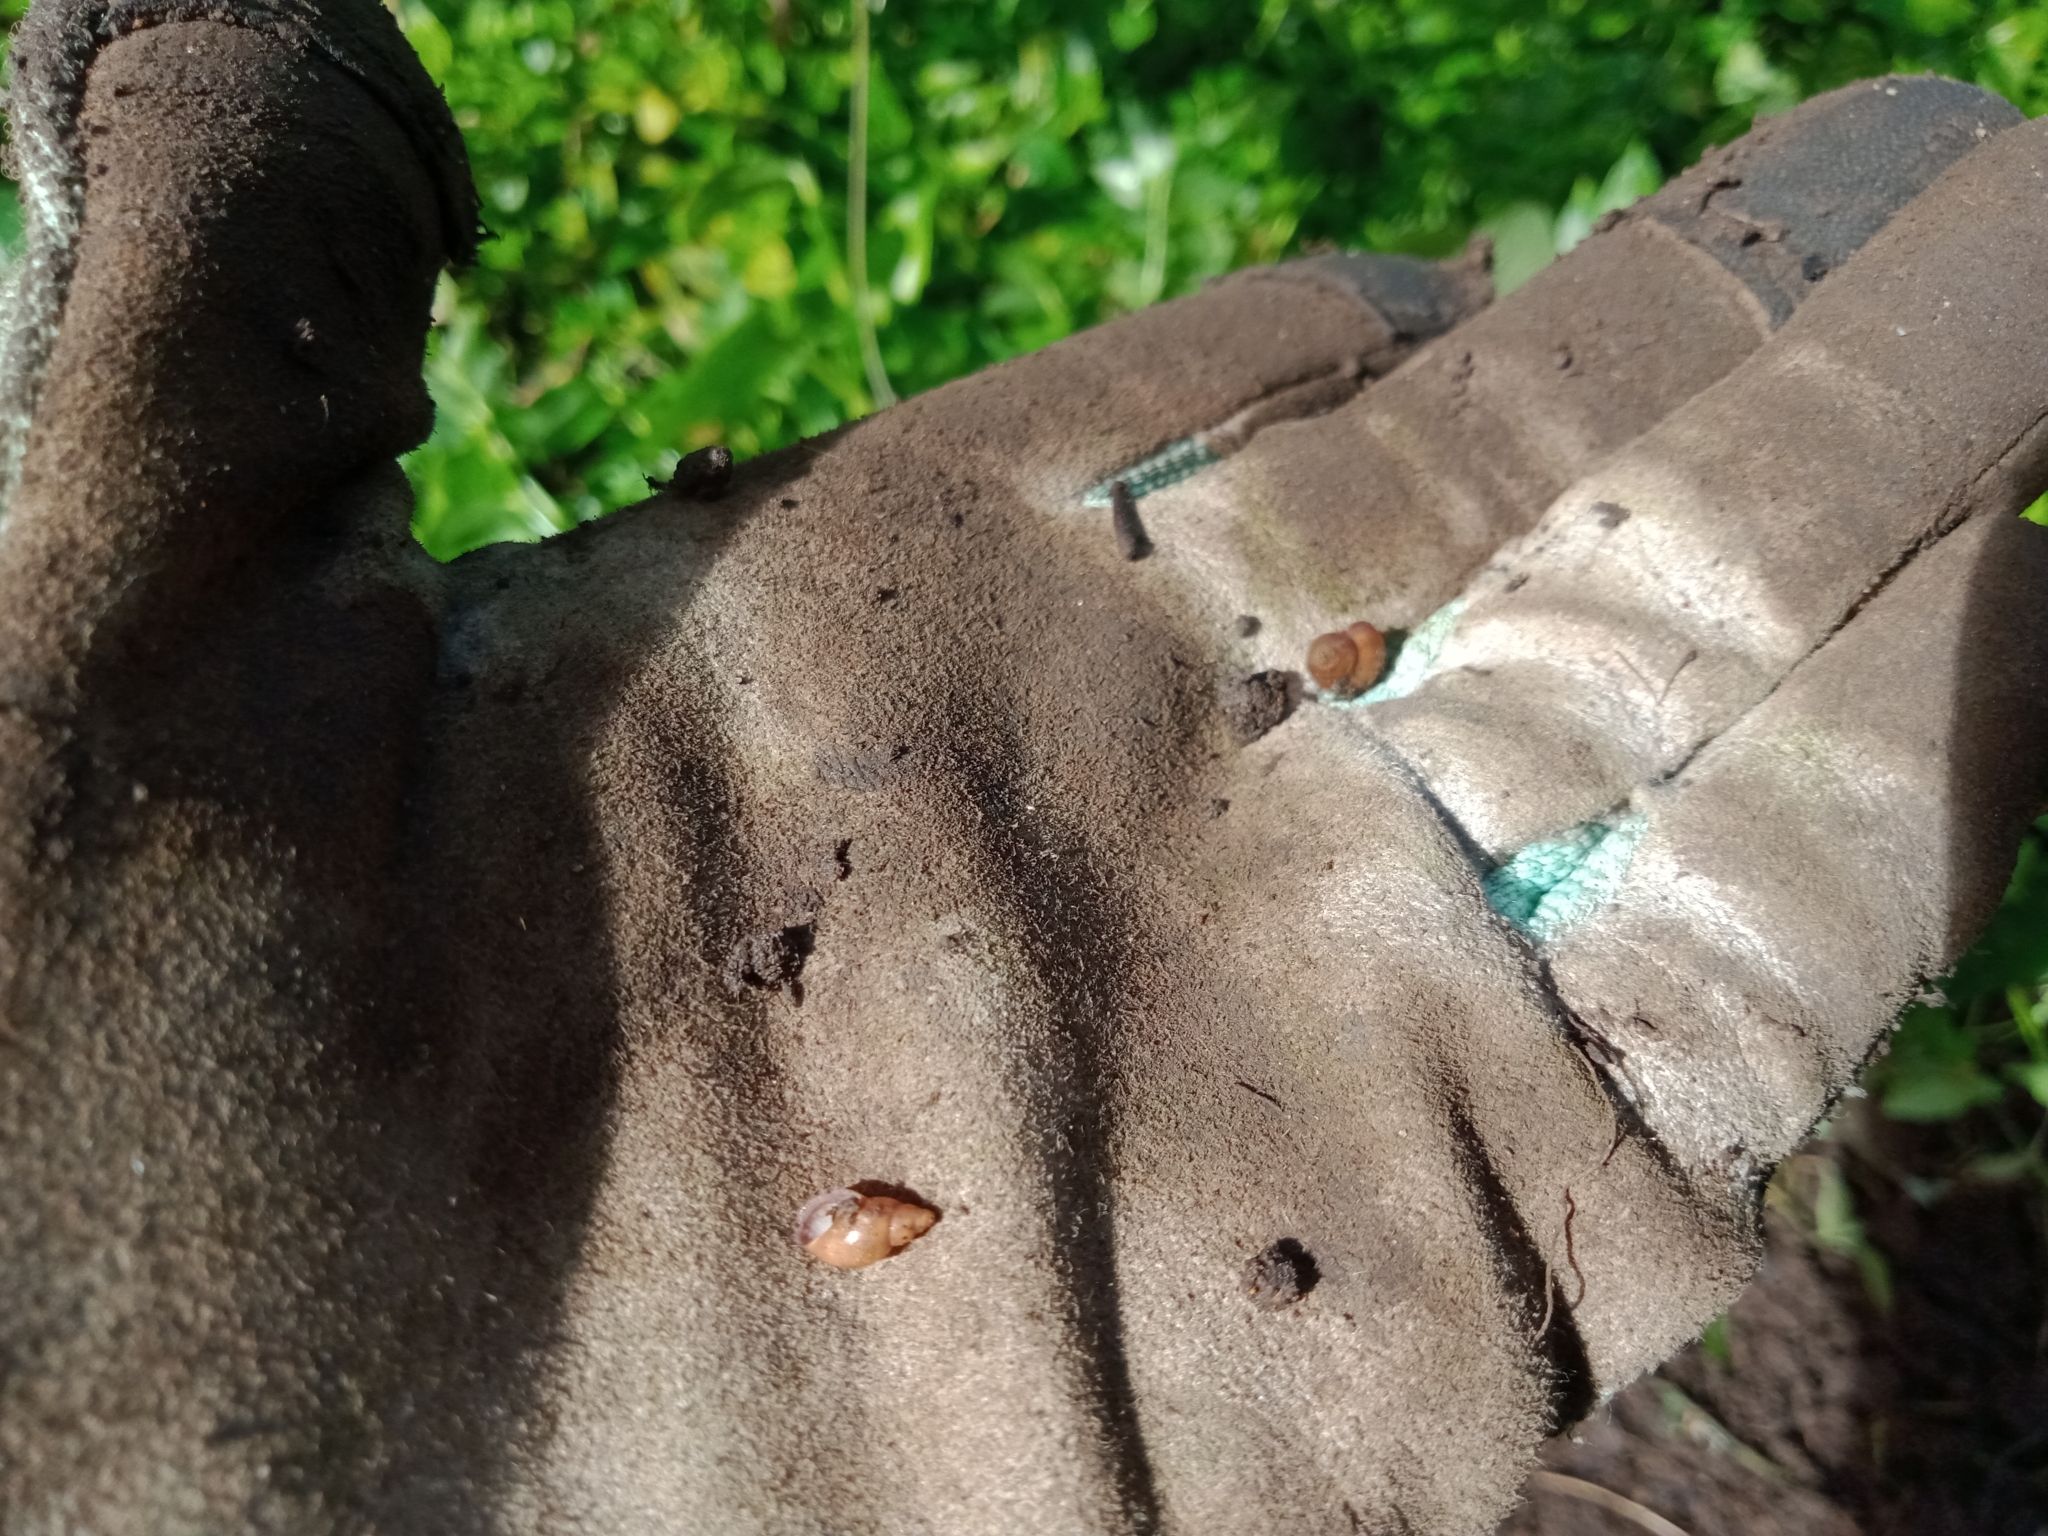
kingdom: Animalia
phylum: Mollusca
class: Gastropoda
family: Planorbidae
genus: Glyptophysa
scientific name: Glyptophysa novaehollandica
